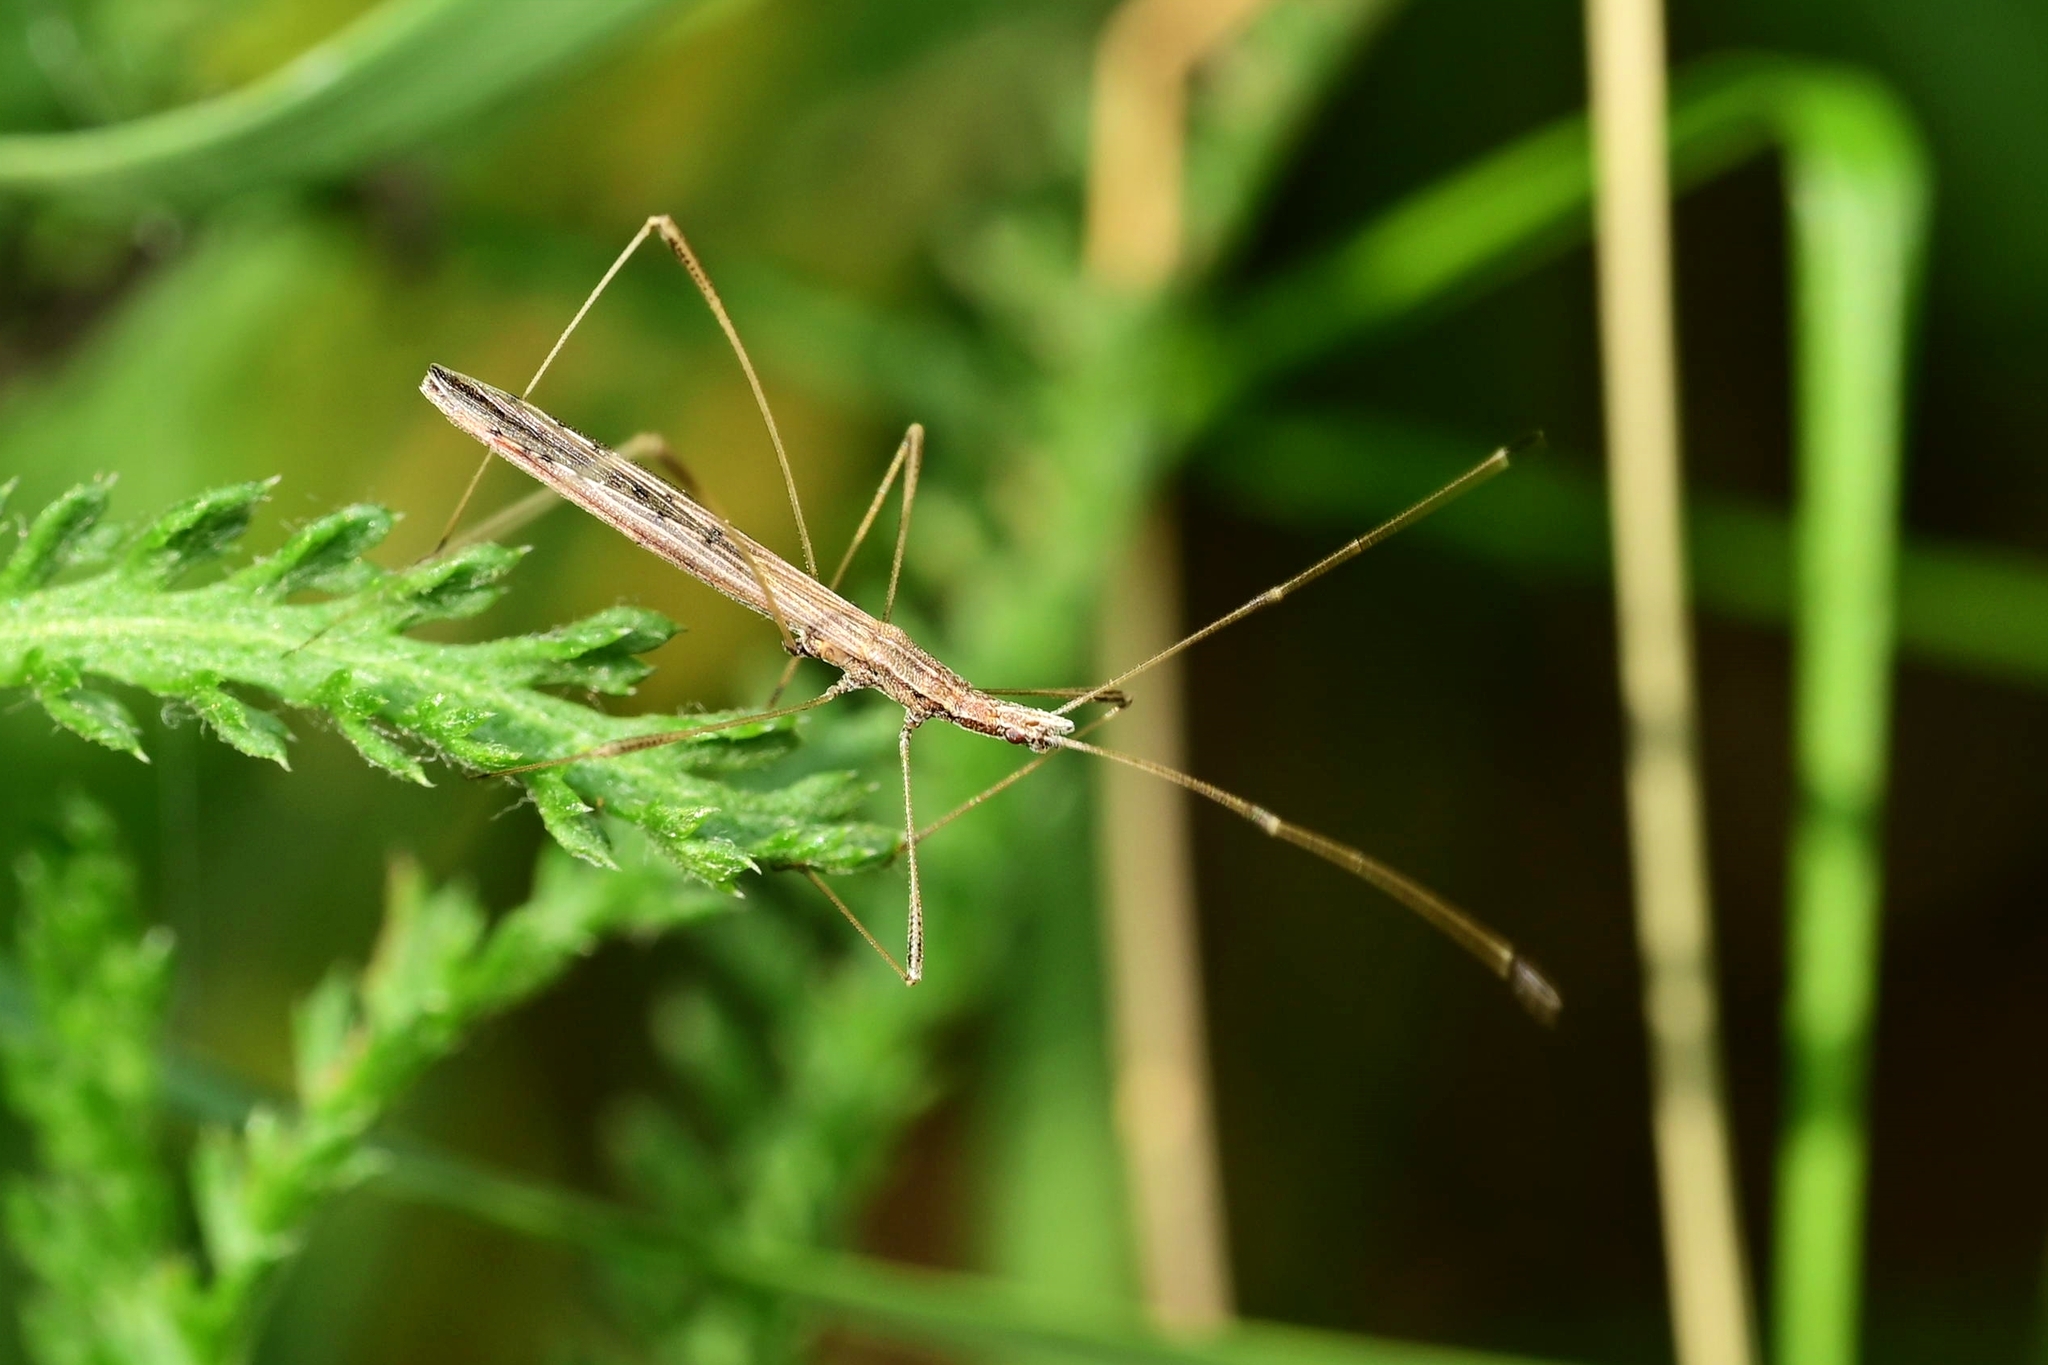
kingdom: Animalia
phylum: Arthropoda
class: Insecta
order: Hemiptera
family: Berytidae
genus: Neides
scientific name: Neides tipularius
